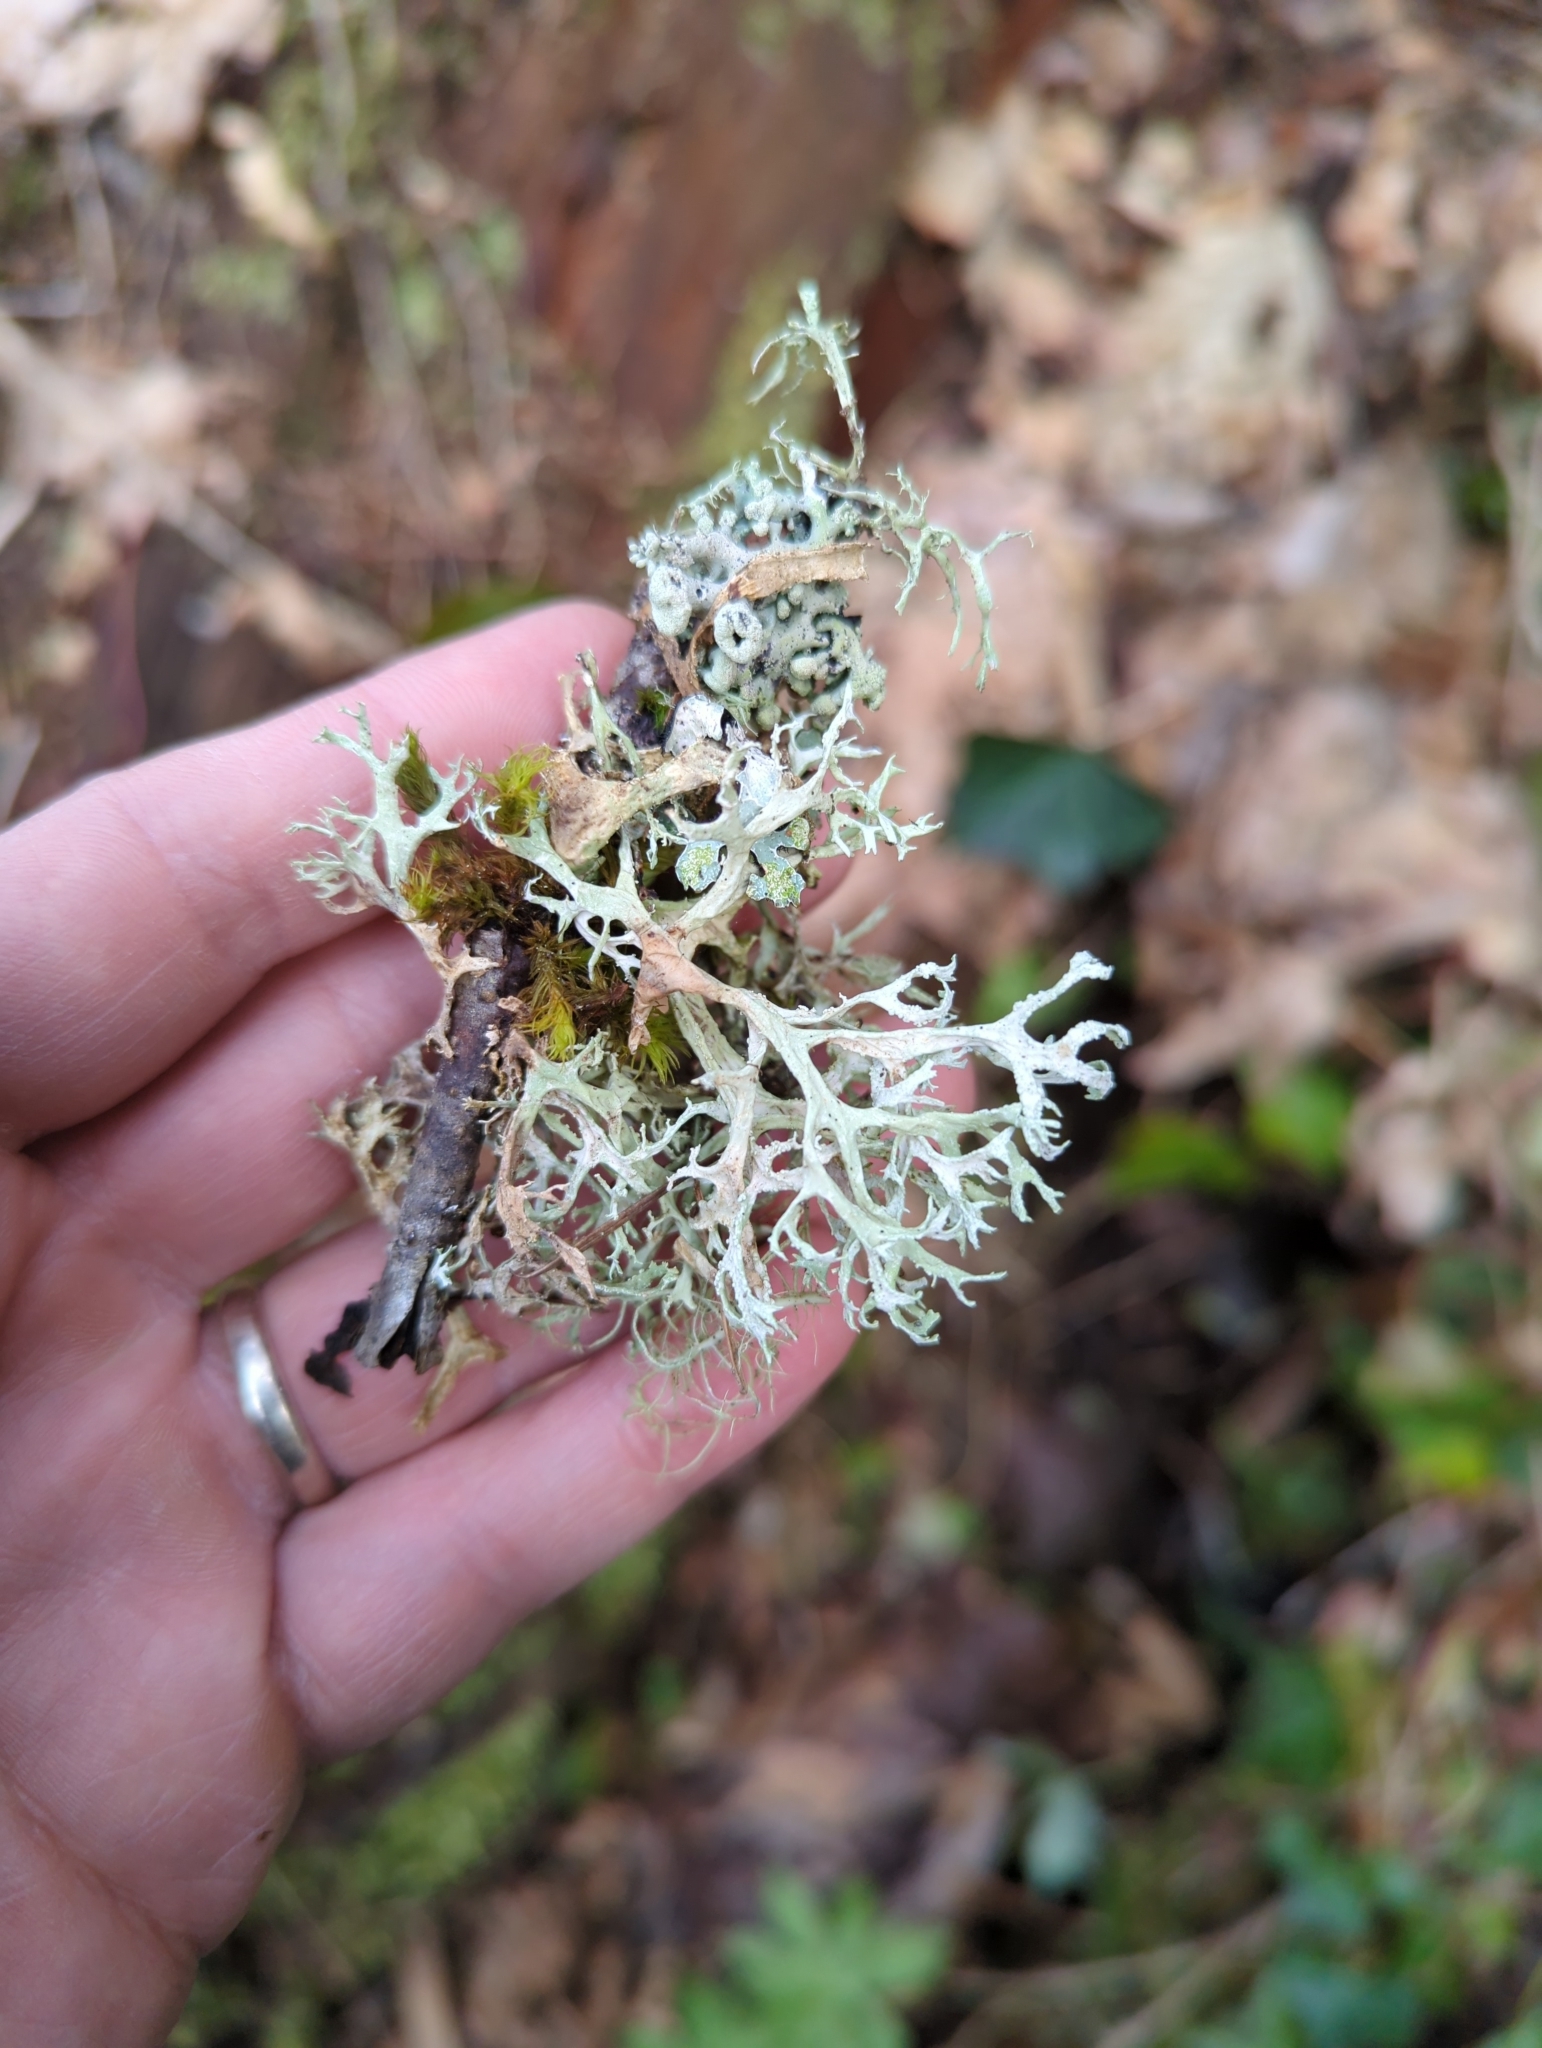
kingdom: Fungi
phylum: Ascomycota
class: Lecanoromycetes
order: Lecanorales
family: Parmeliaceae
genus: Evernia
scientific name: Evernia prunastri
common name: Oak moss
